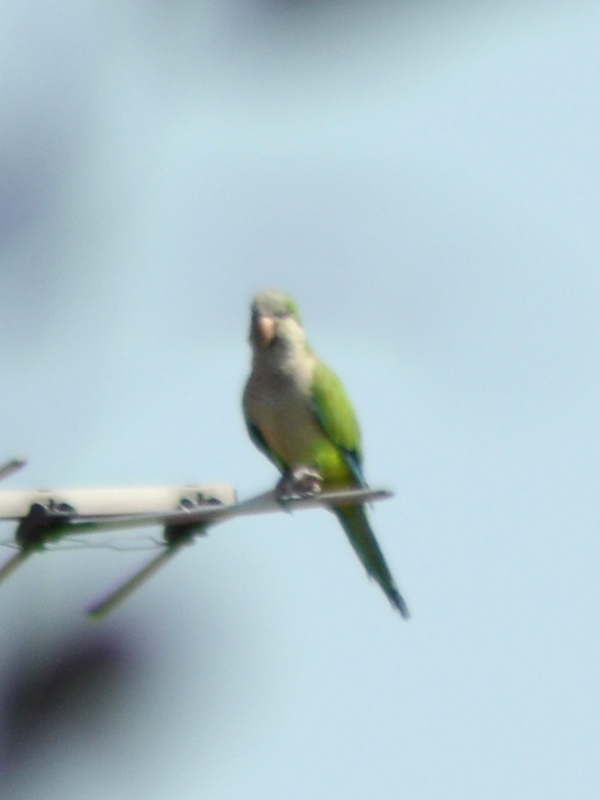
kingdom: Animalia
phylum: Chordata
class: Aves
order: Psittaciformes
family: Psittacidae
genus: Myiopsitta
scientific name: Myiopsitta monachus
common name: Monk parakeet
